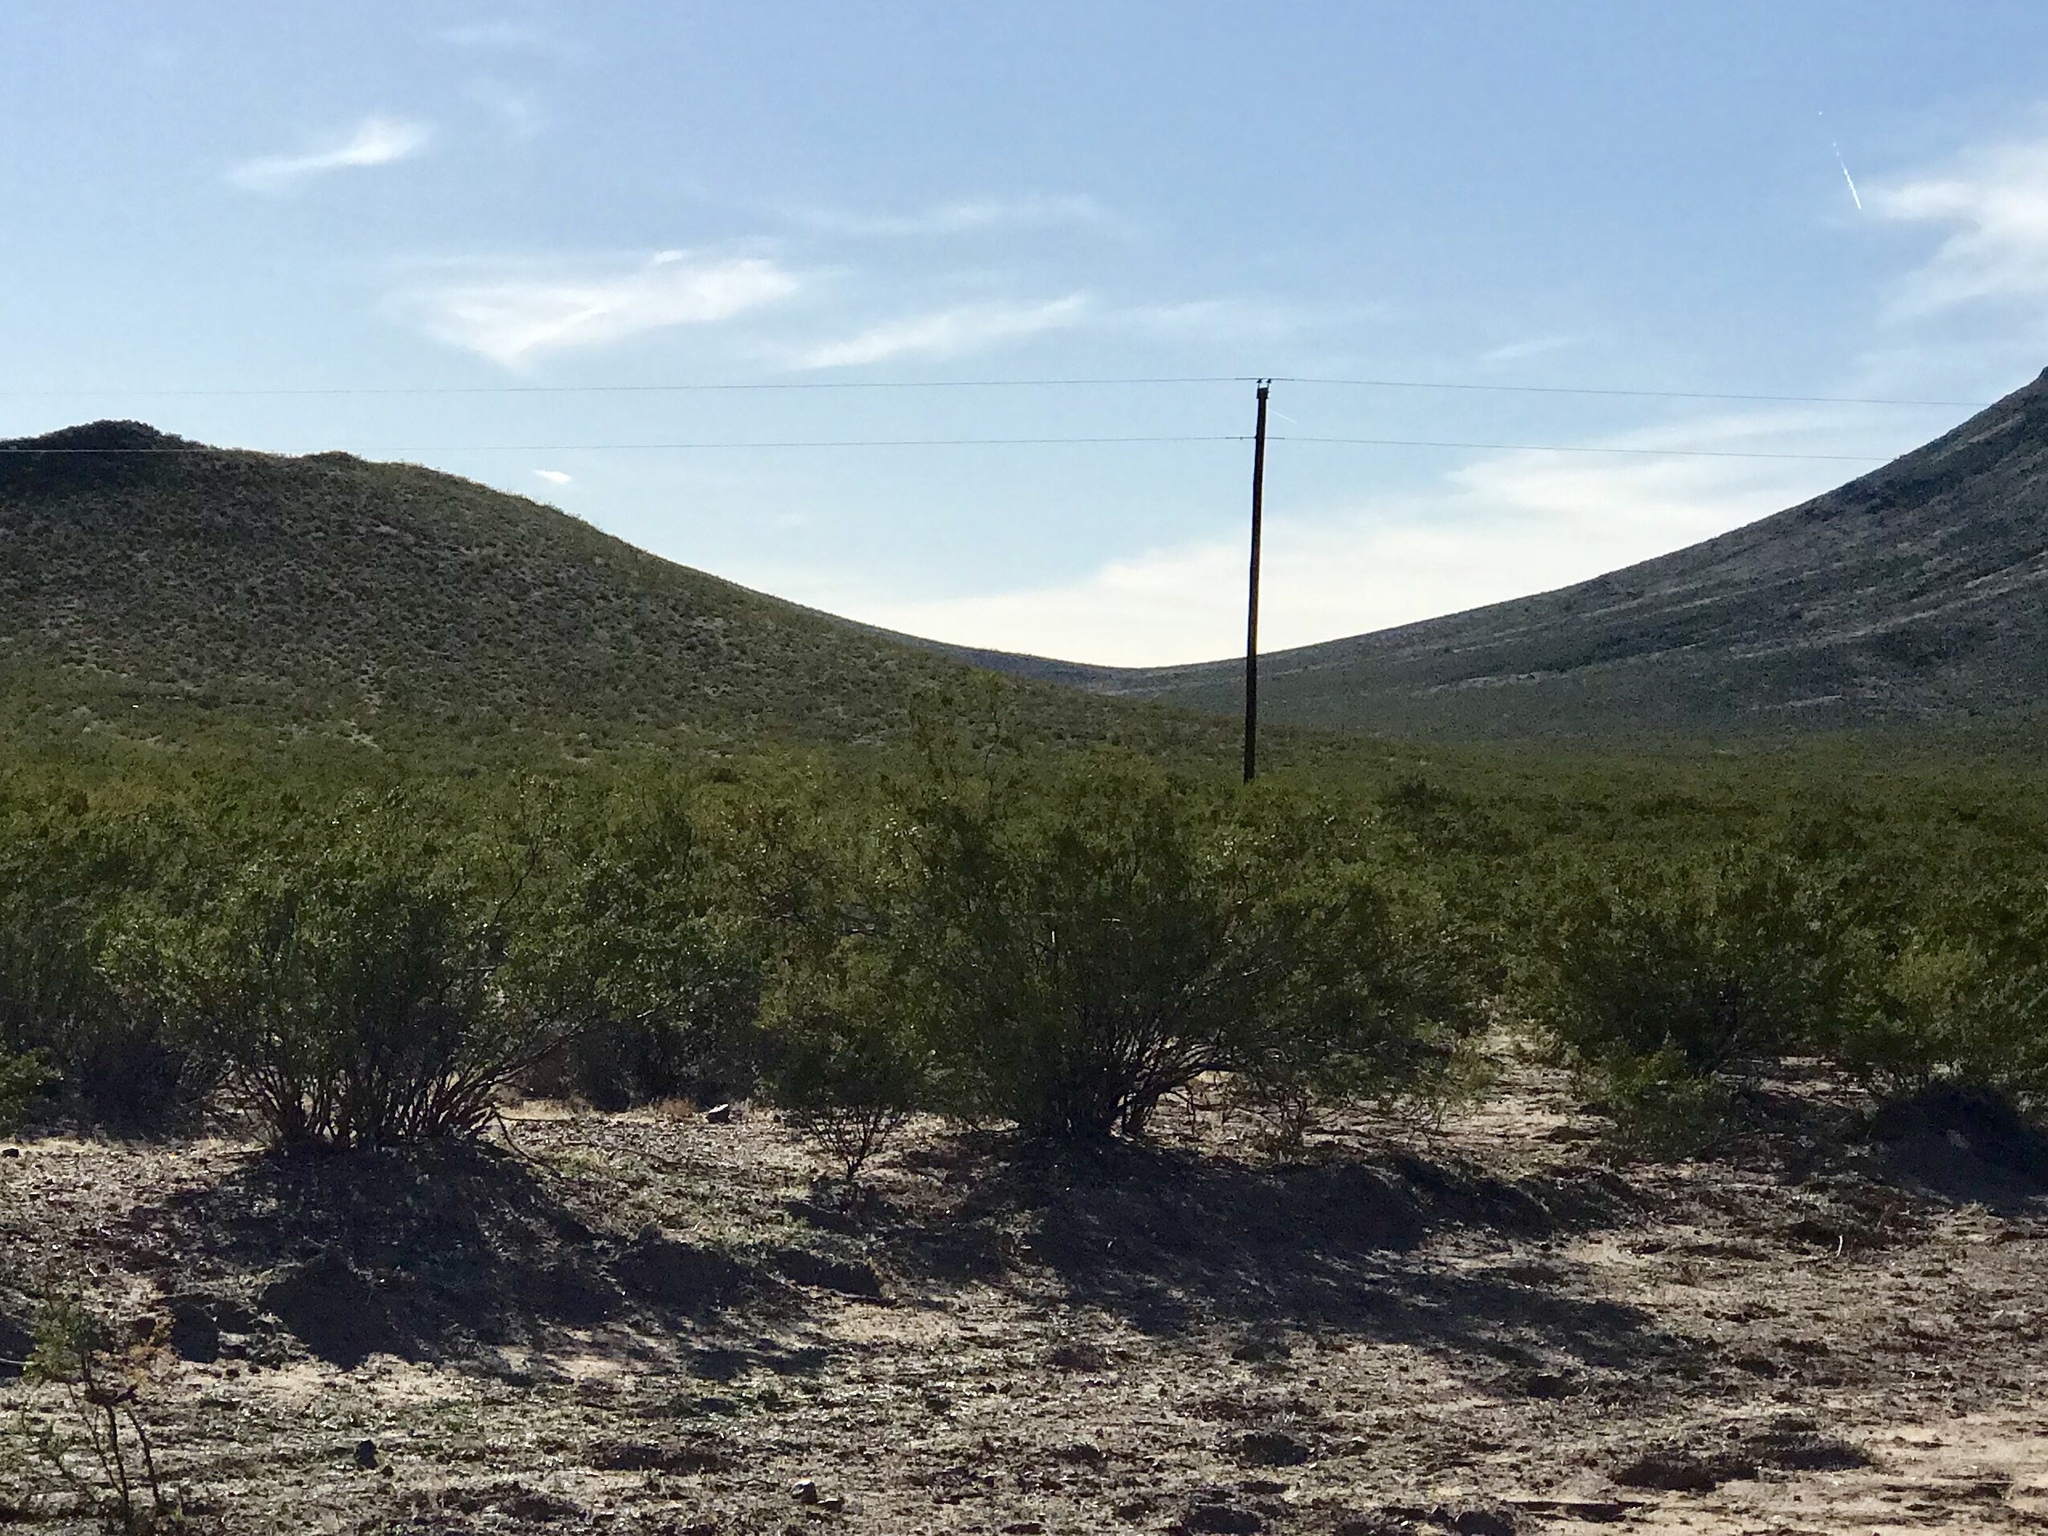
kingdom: Plantae
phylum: Tracheophyta
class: Magnoliopsida
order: Zygophyllales
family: Zygophyllaceae
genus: Larrea
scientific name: Larrea tridentata
